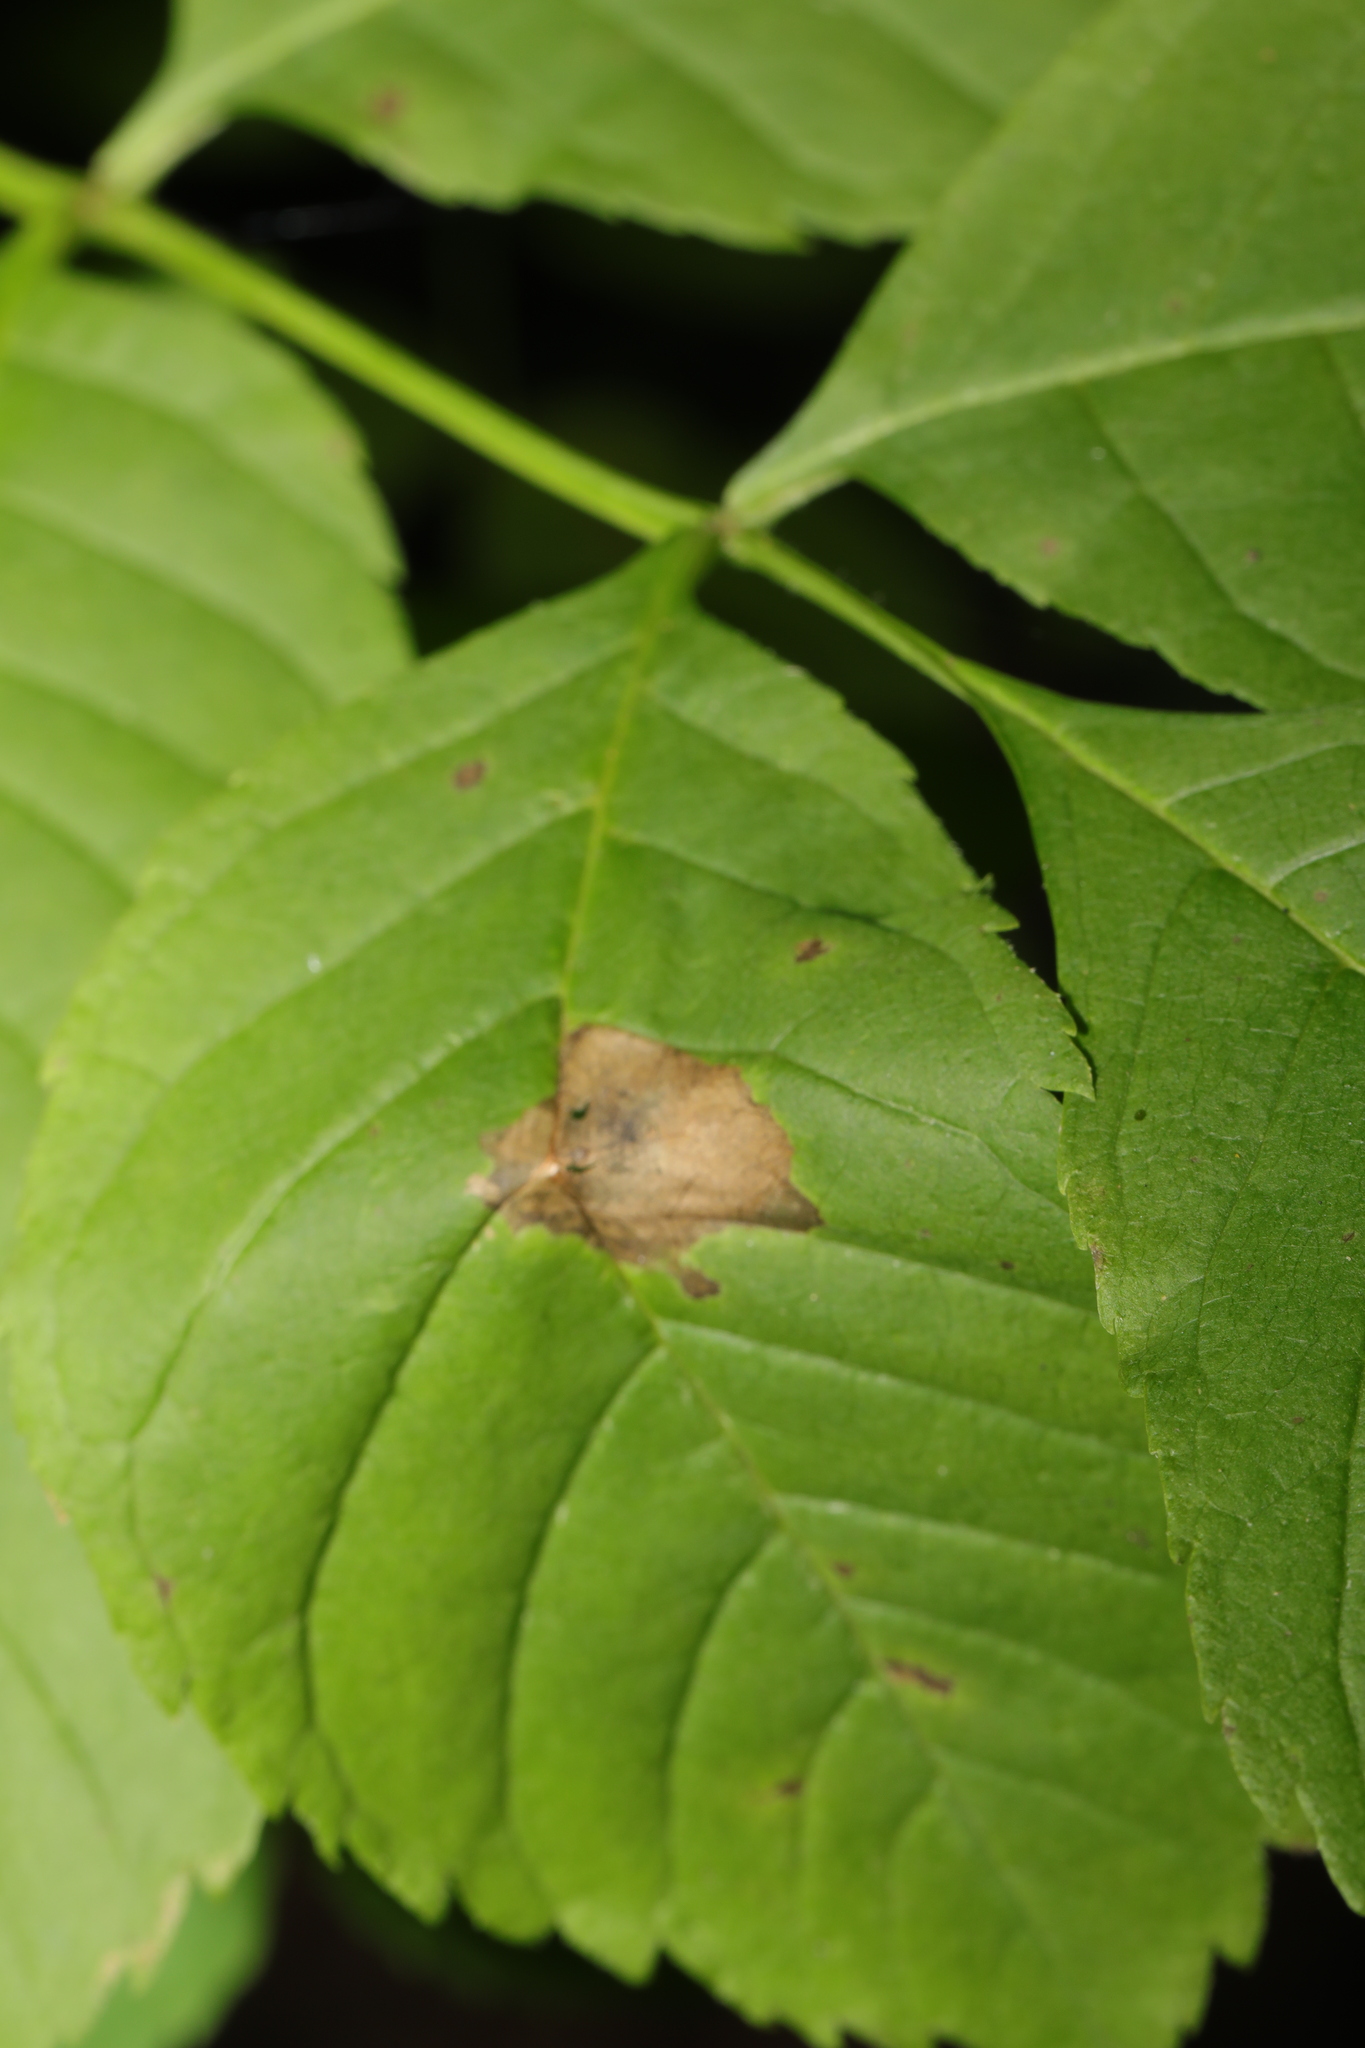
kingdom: Animalia
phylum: Arthropoda
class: Insecta
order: Diptera
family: Cecidomyiidae
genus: Dasineura
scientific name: Dasineura fraxinea
